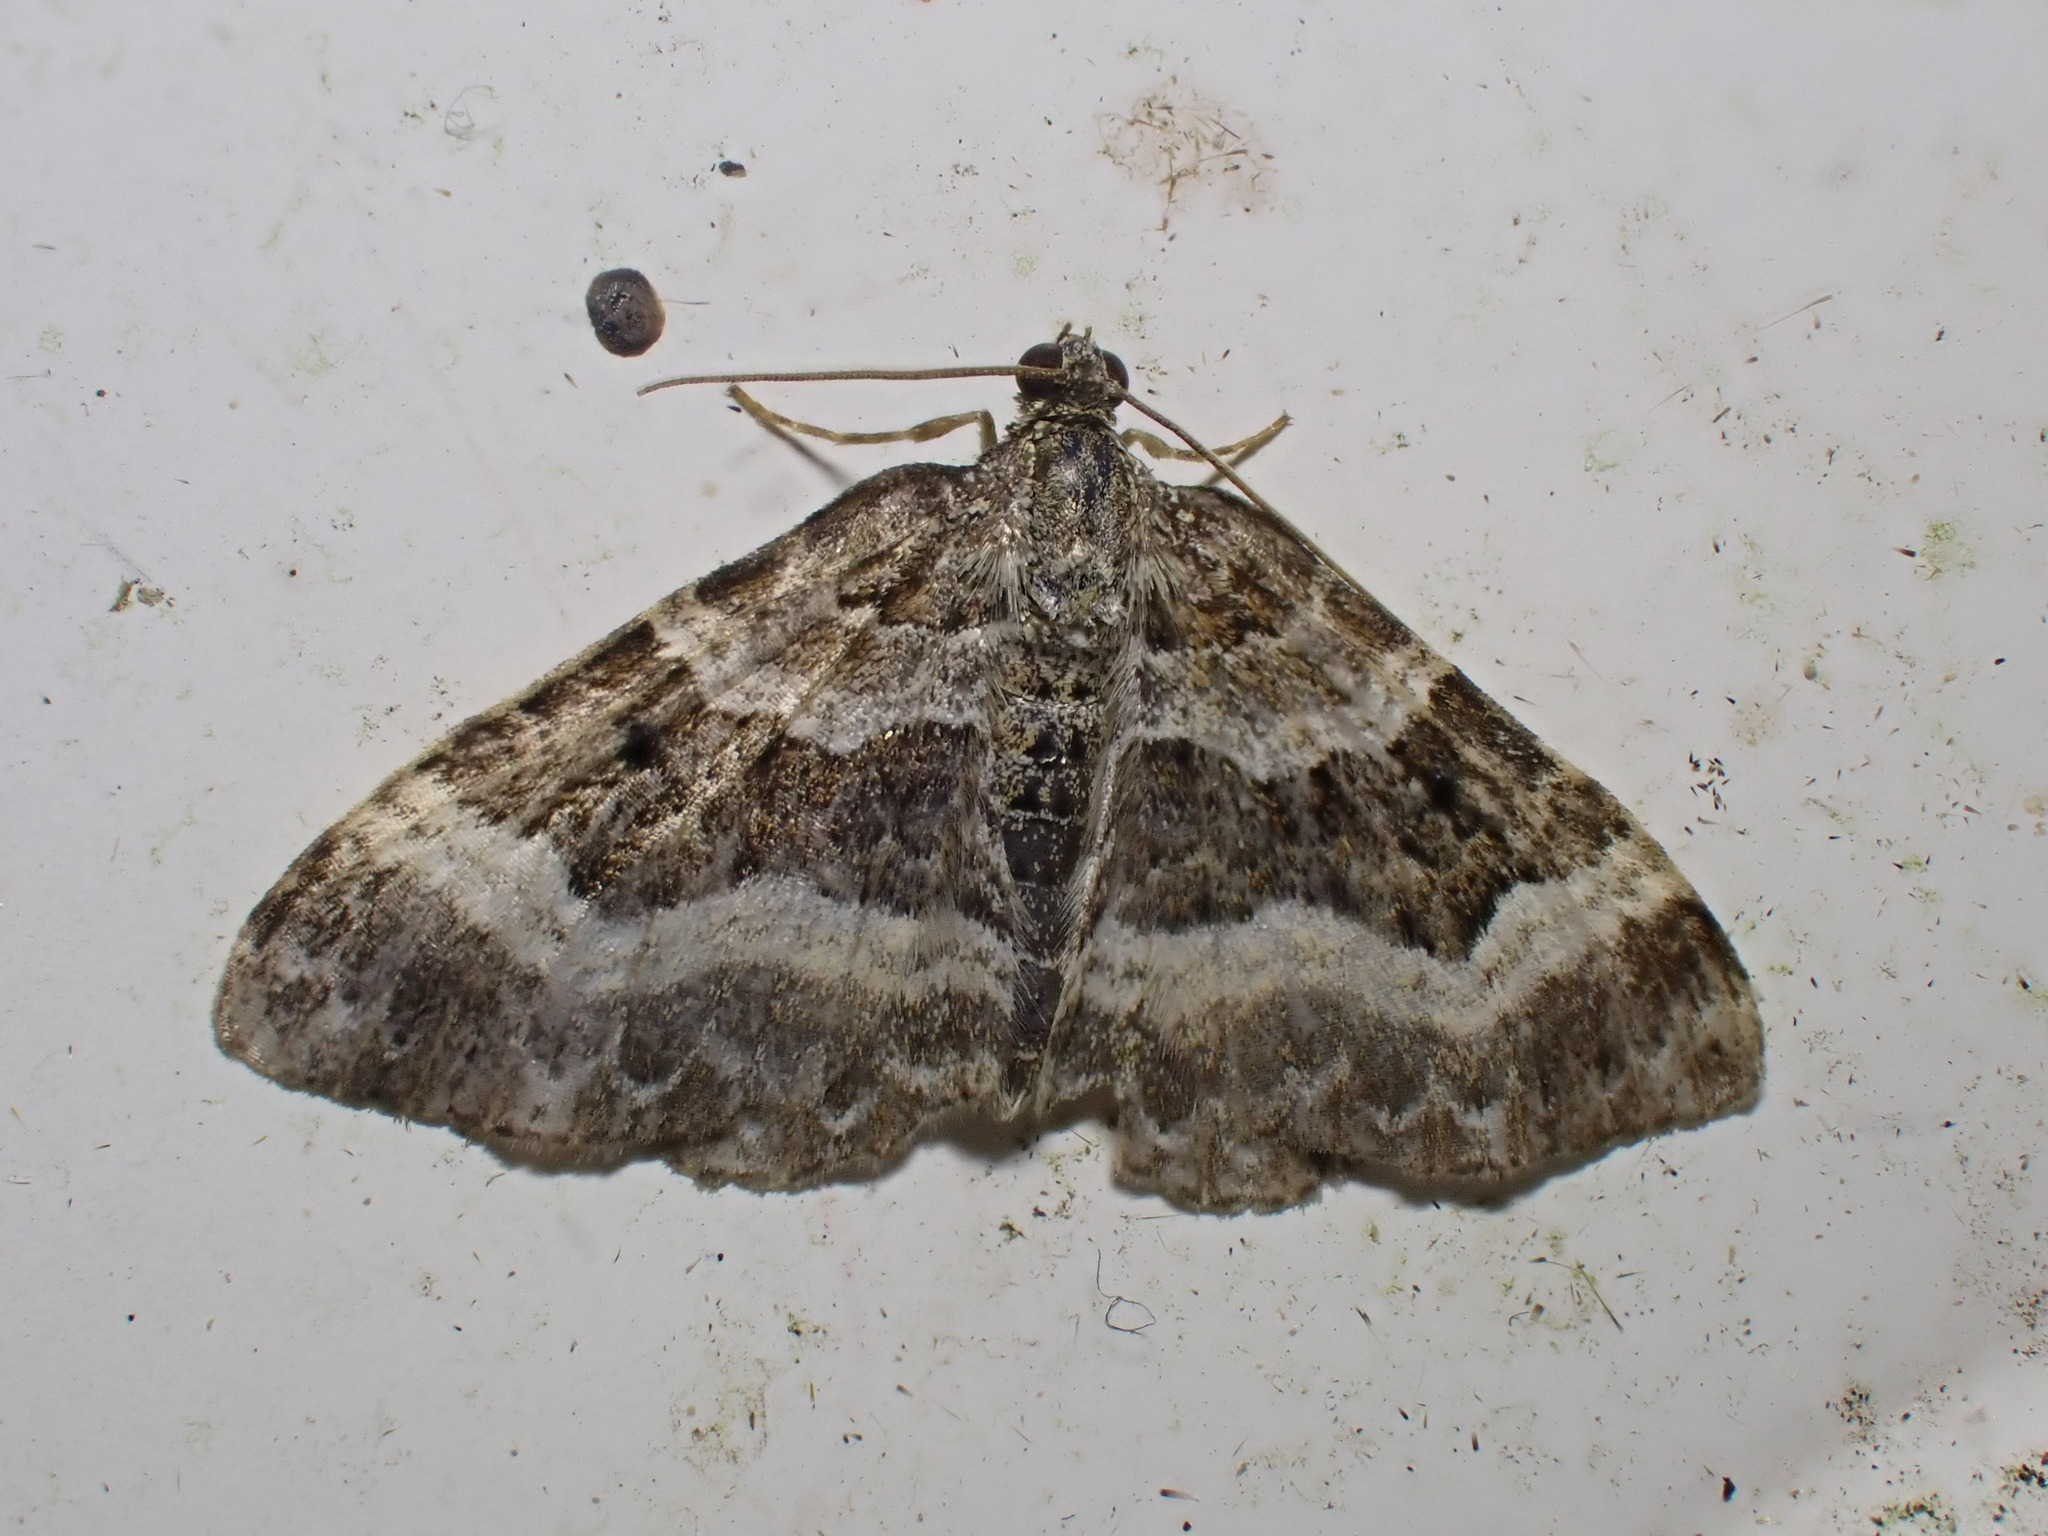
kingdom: Animalia
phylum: Arthropoda
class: Insecta
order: Lepidoptera
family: Geometridae
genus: Epirrhoe
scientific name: Epirrhoe alternata
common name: Common carpet
